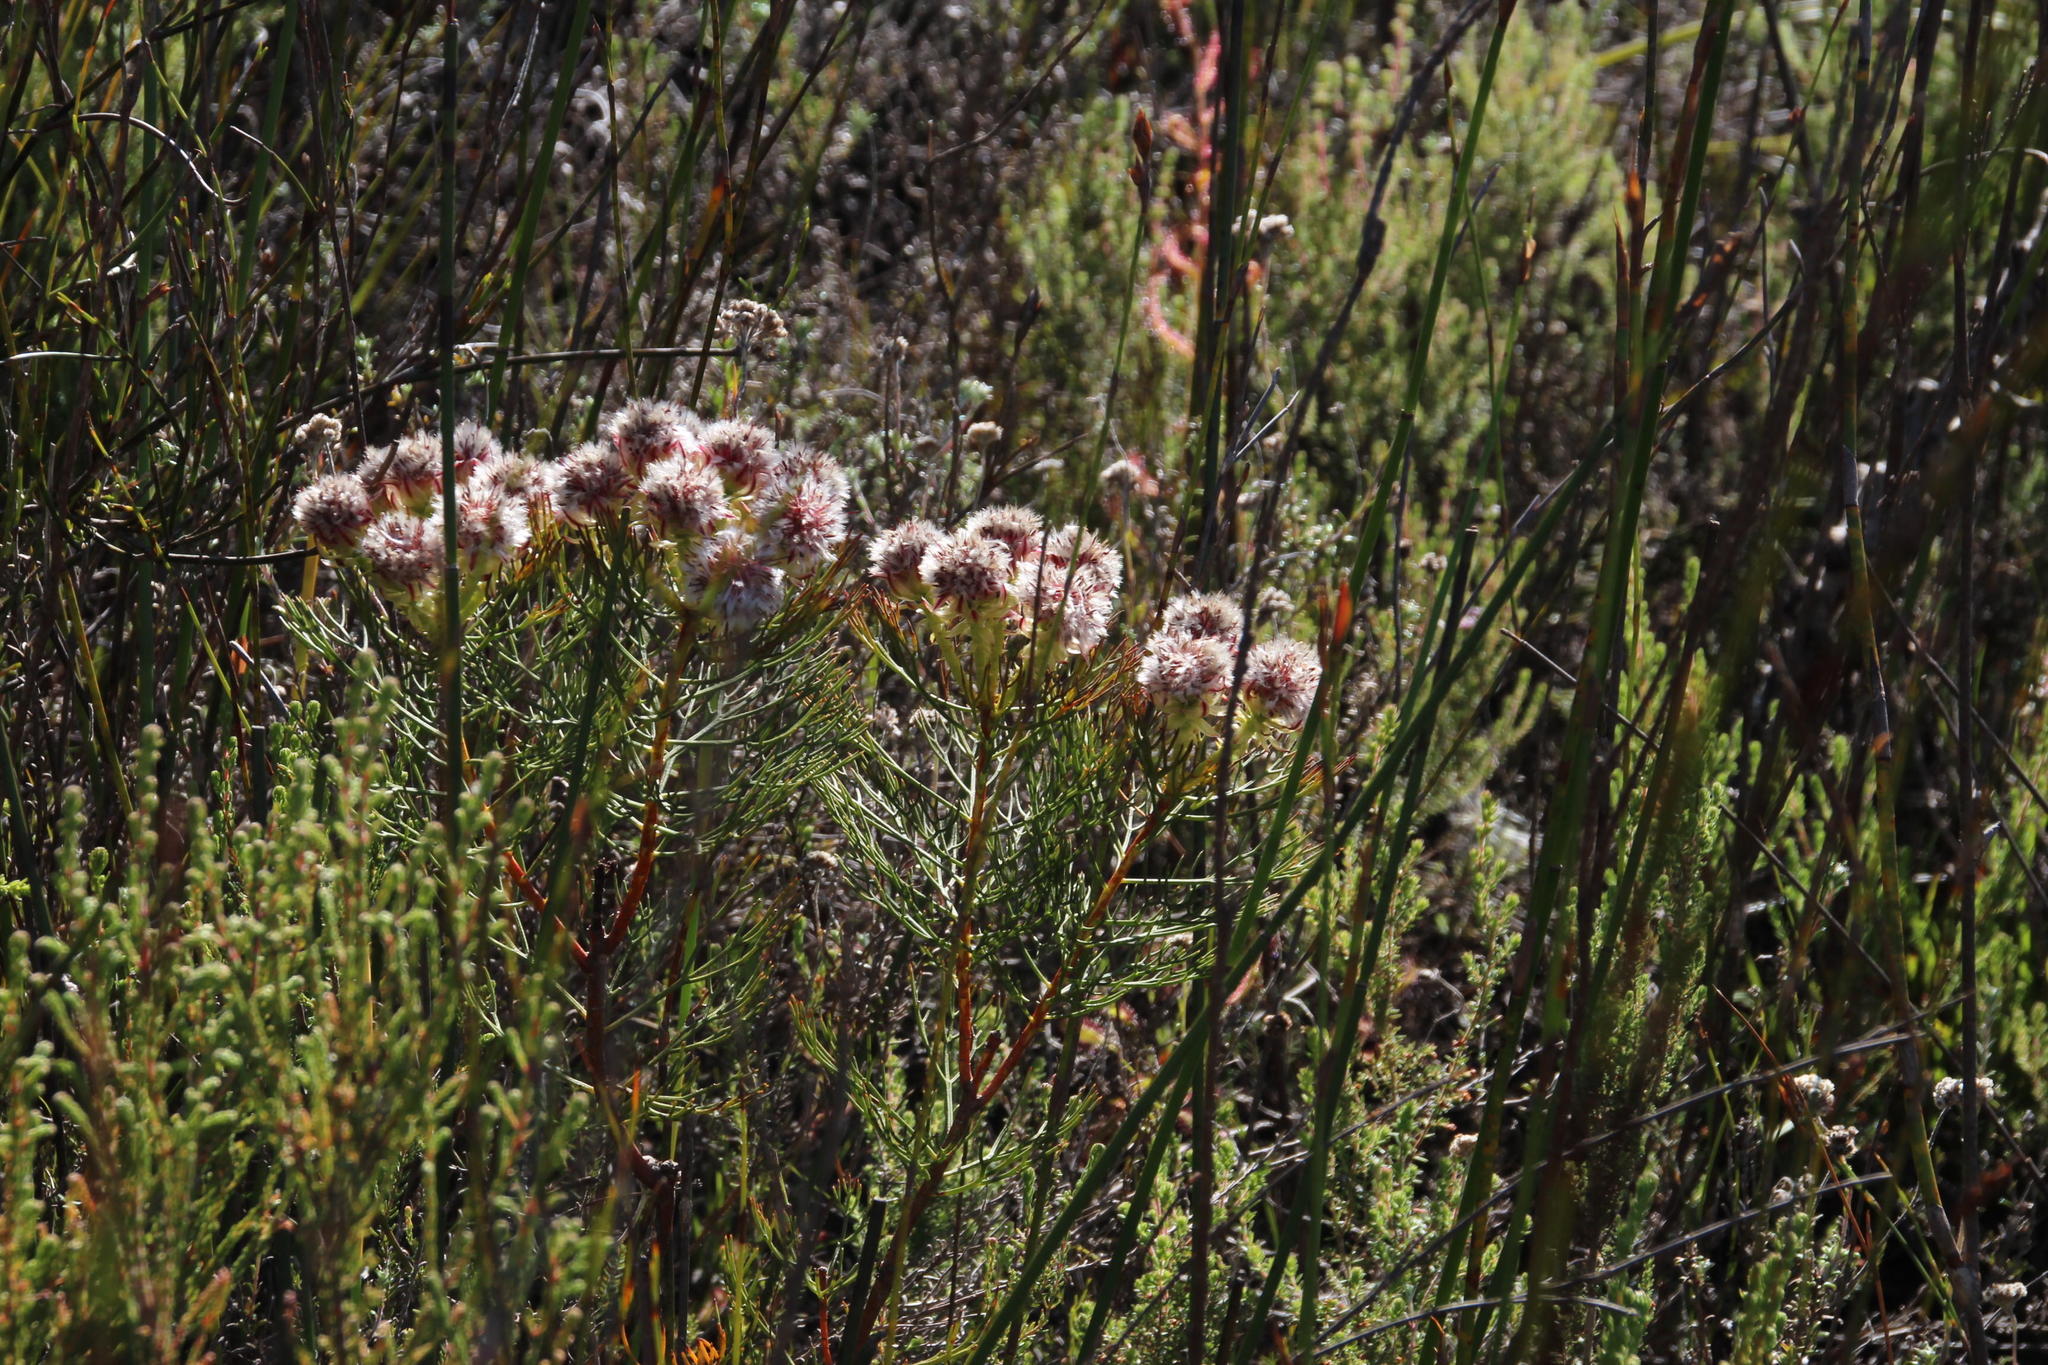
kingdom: Plantae
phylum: Tracheophyta
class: Magnoliopsida
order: Proteales
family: Proteaceae
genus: Serruria
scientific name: Serruria phylicoides
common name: Bearded spiderhead
